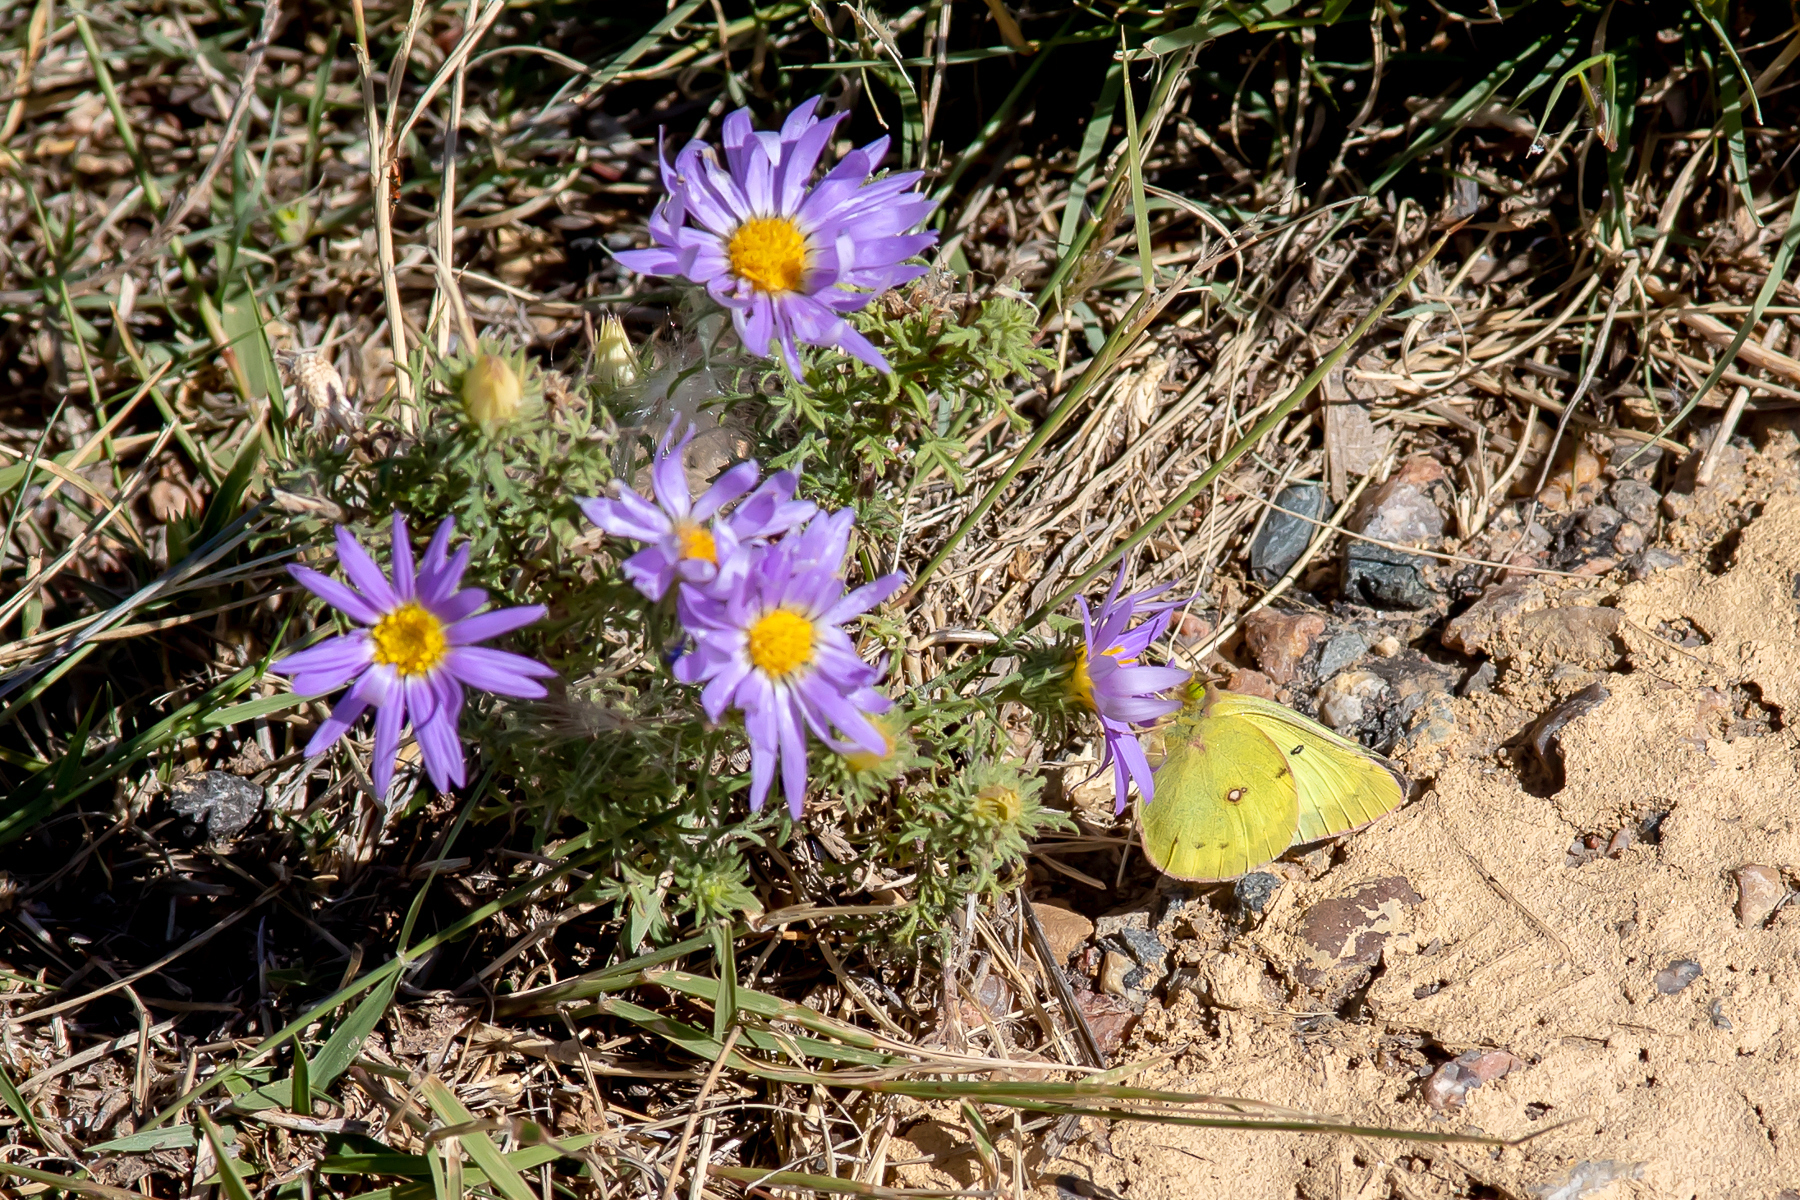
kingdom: Plantae
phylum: Tracheophyta
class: Magnoliopsida
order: Asterales
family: Asteraceae
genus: Machaeranthera
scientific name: Machaeranthera tanacetifolia
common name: Tansy-aster
